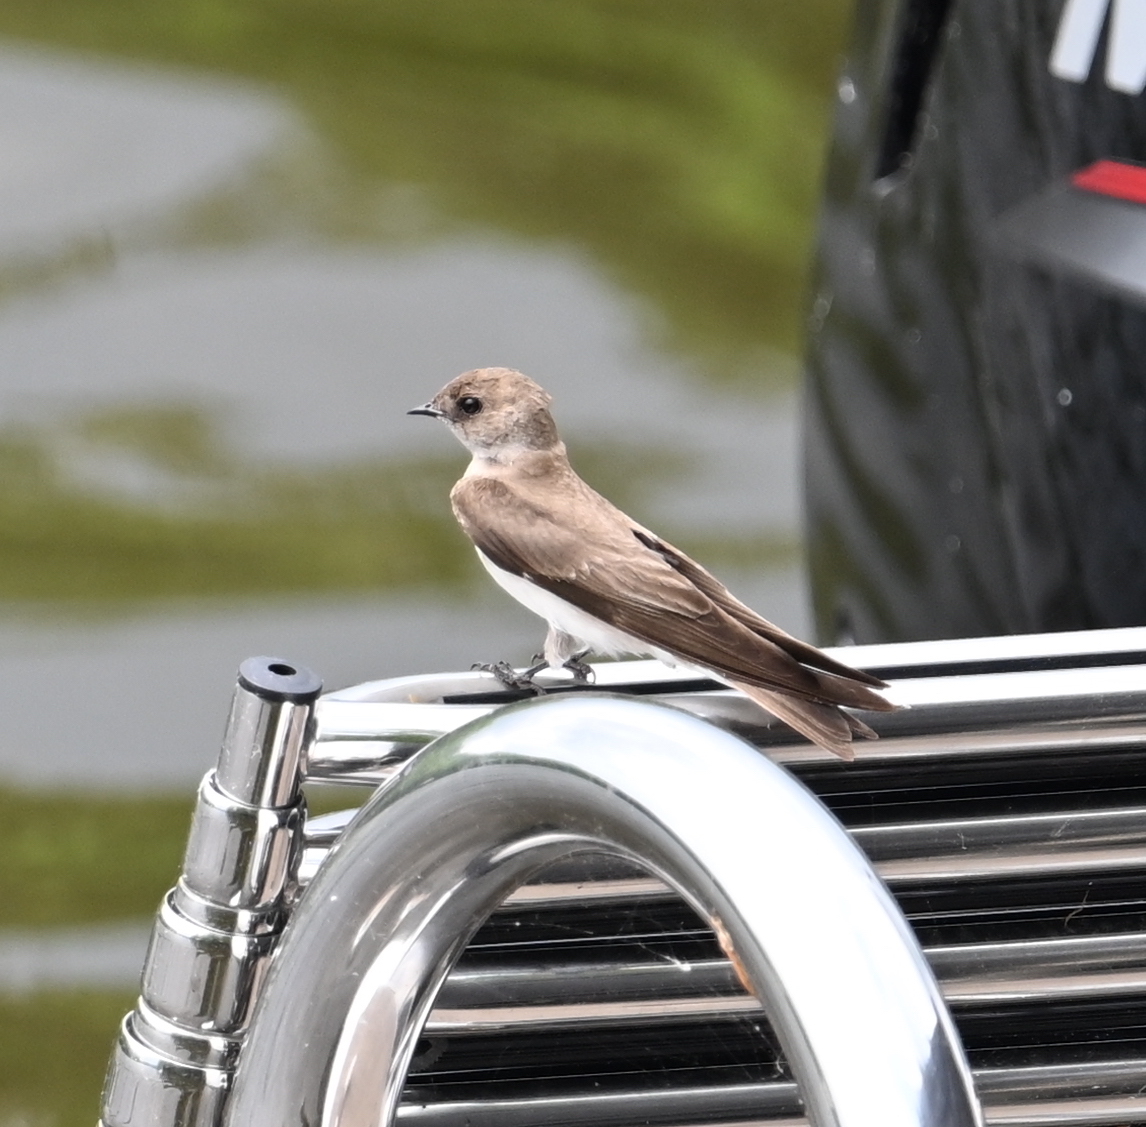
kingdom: Animalia
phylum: Chordata
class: Aves
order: Passeriformes
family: Hirundinidae
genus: Stelgidopteryx
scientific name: Stelgidopteryx serripennis
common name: Northern rough-winged swallow
